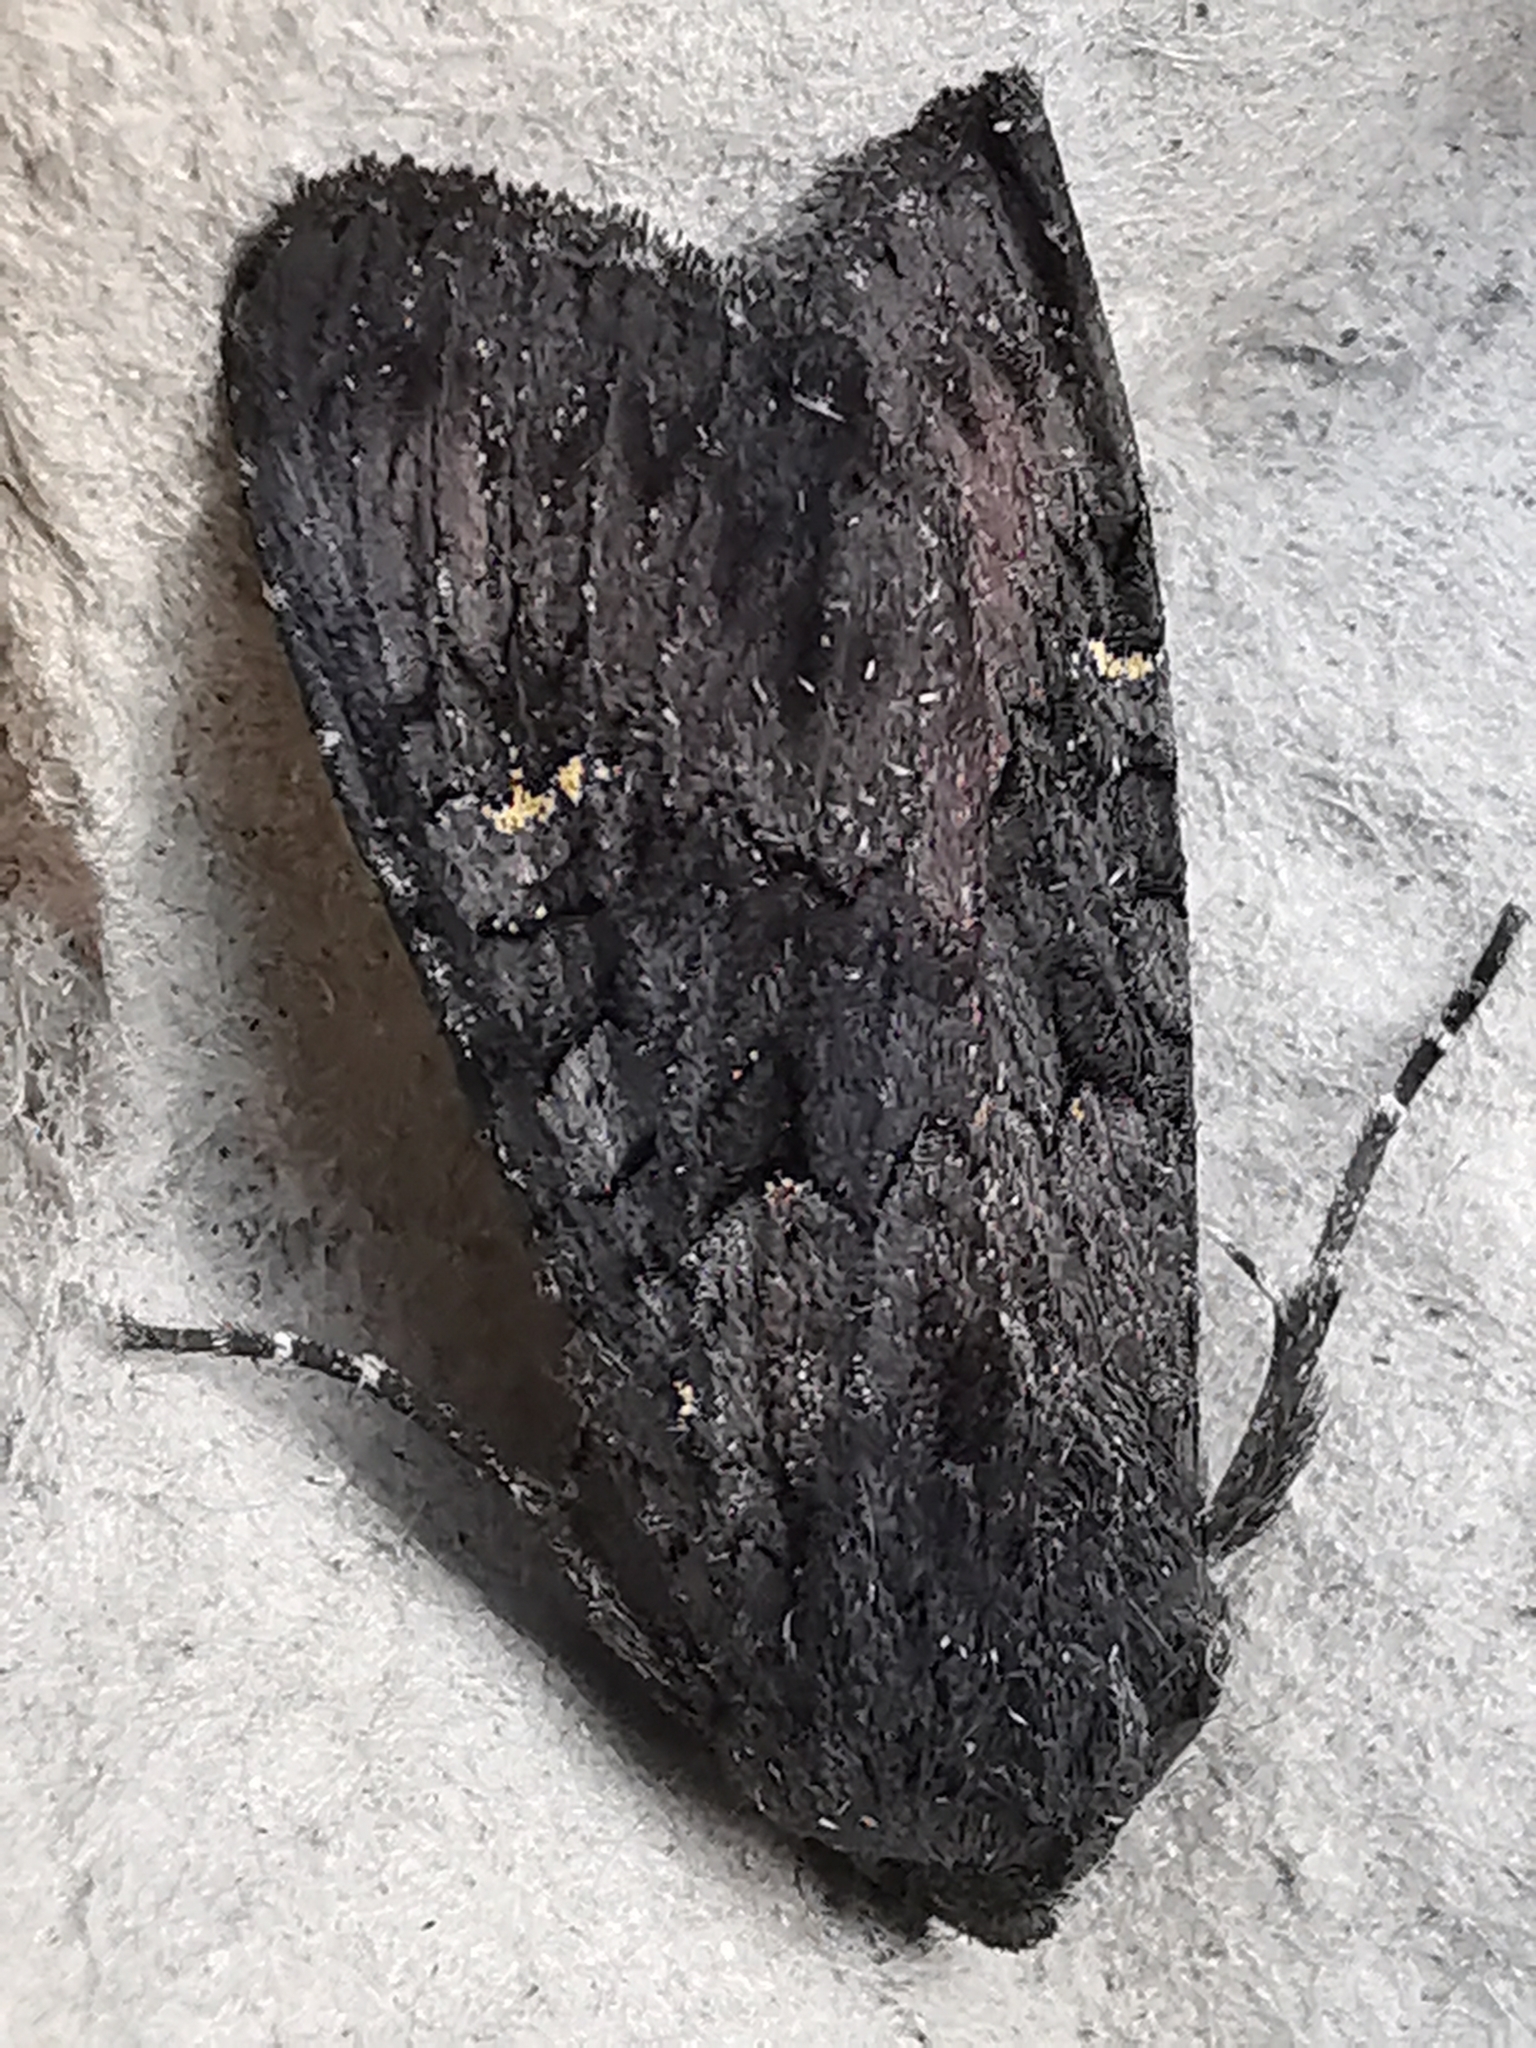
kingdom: Animalia
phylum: Arthropoda
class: Insecta
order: Lepidoptera
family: Noctuidae
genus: Aporophyla
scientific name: Aporophyla nigra
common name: Black rustic
